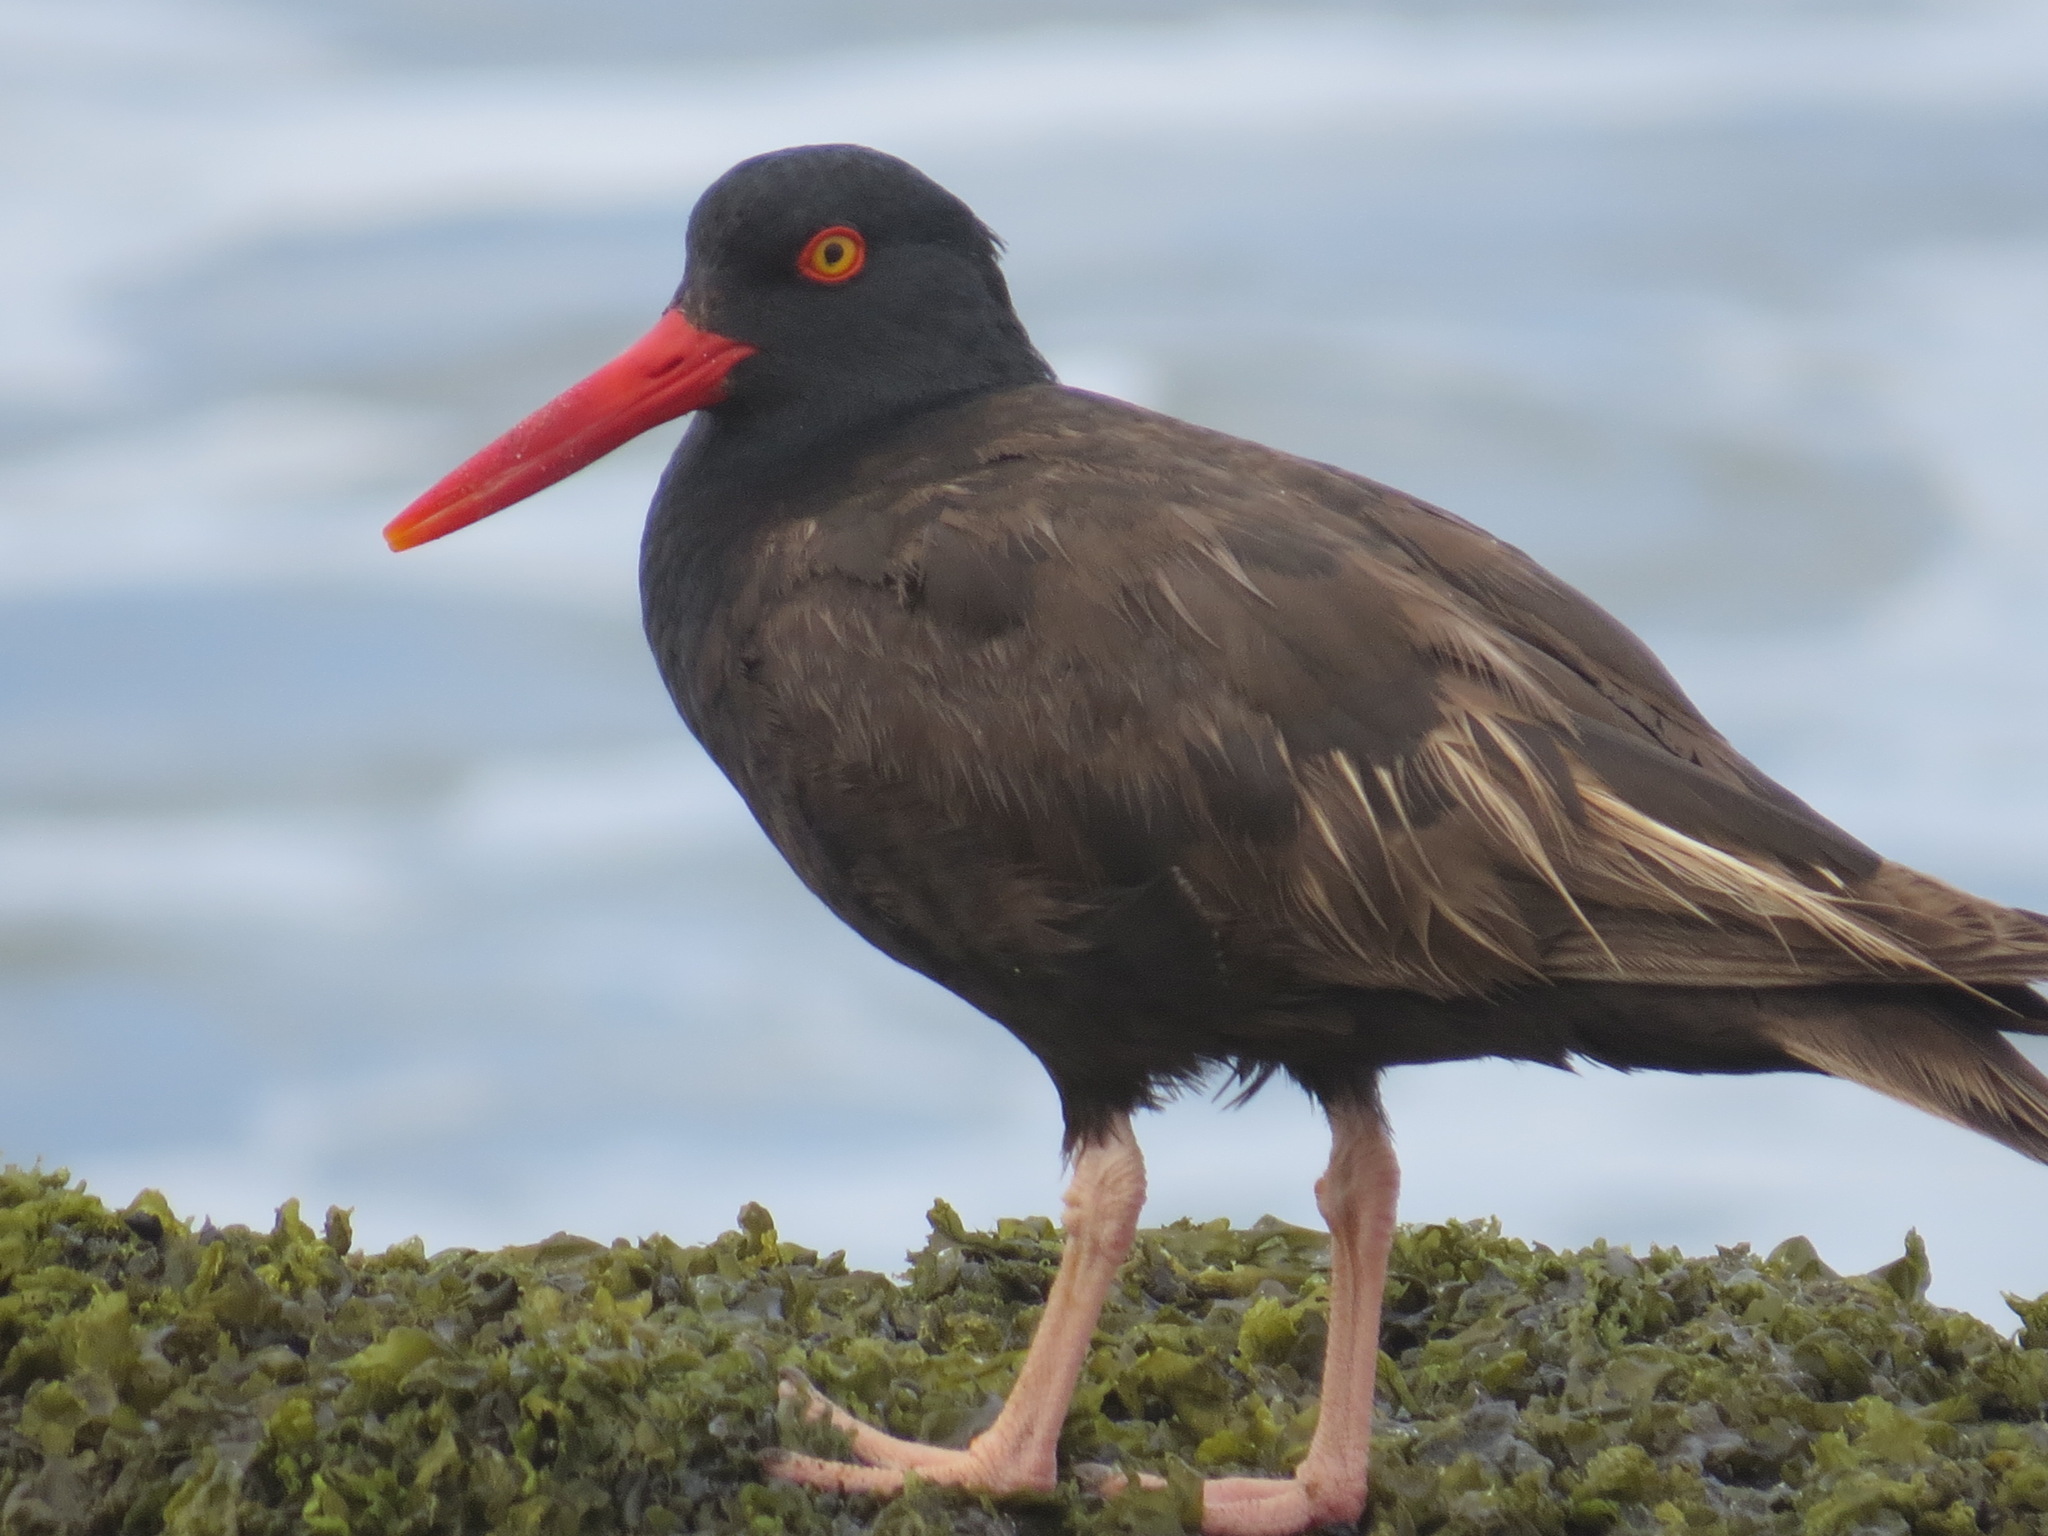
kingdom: Animalia
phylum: Chordata
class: Aves
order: Charadriiformes
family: Haematopodidae
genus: Haematopus
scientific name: Haematopus bachmani
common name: Black oystercatcher
